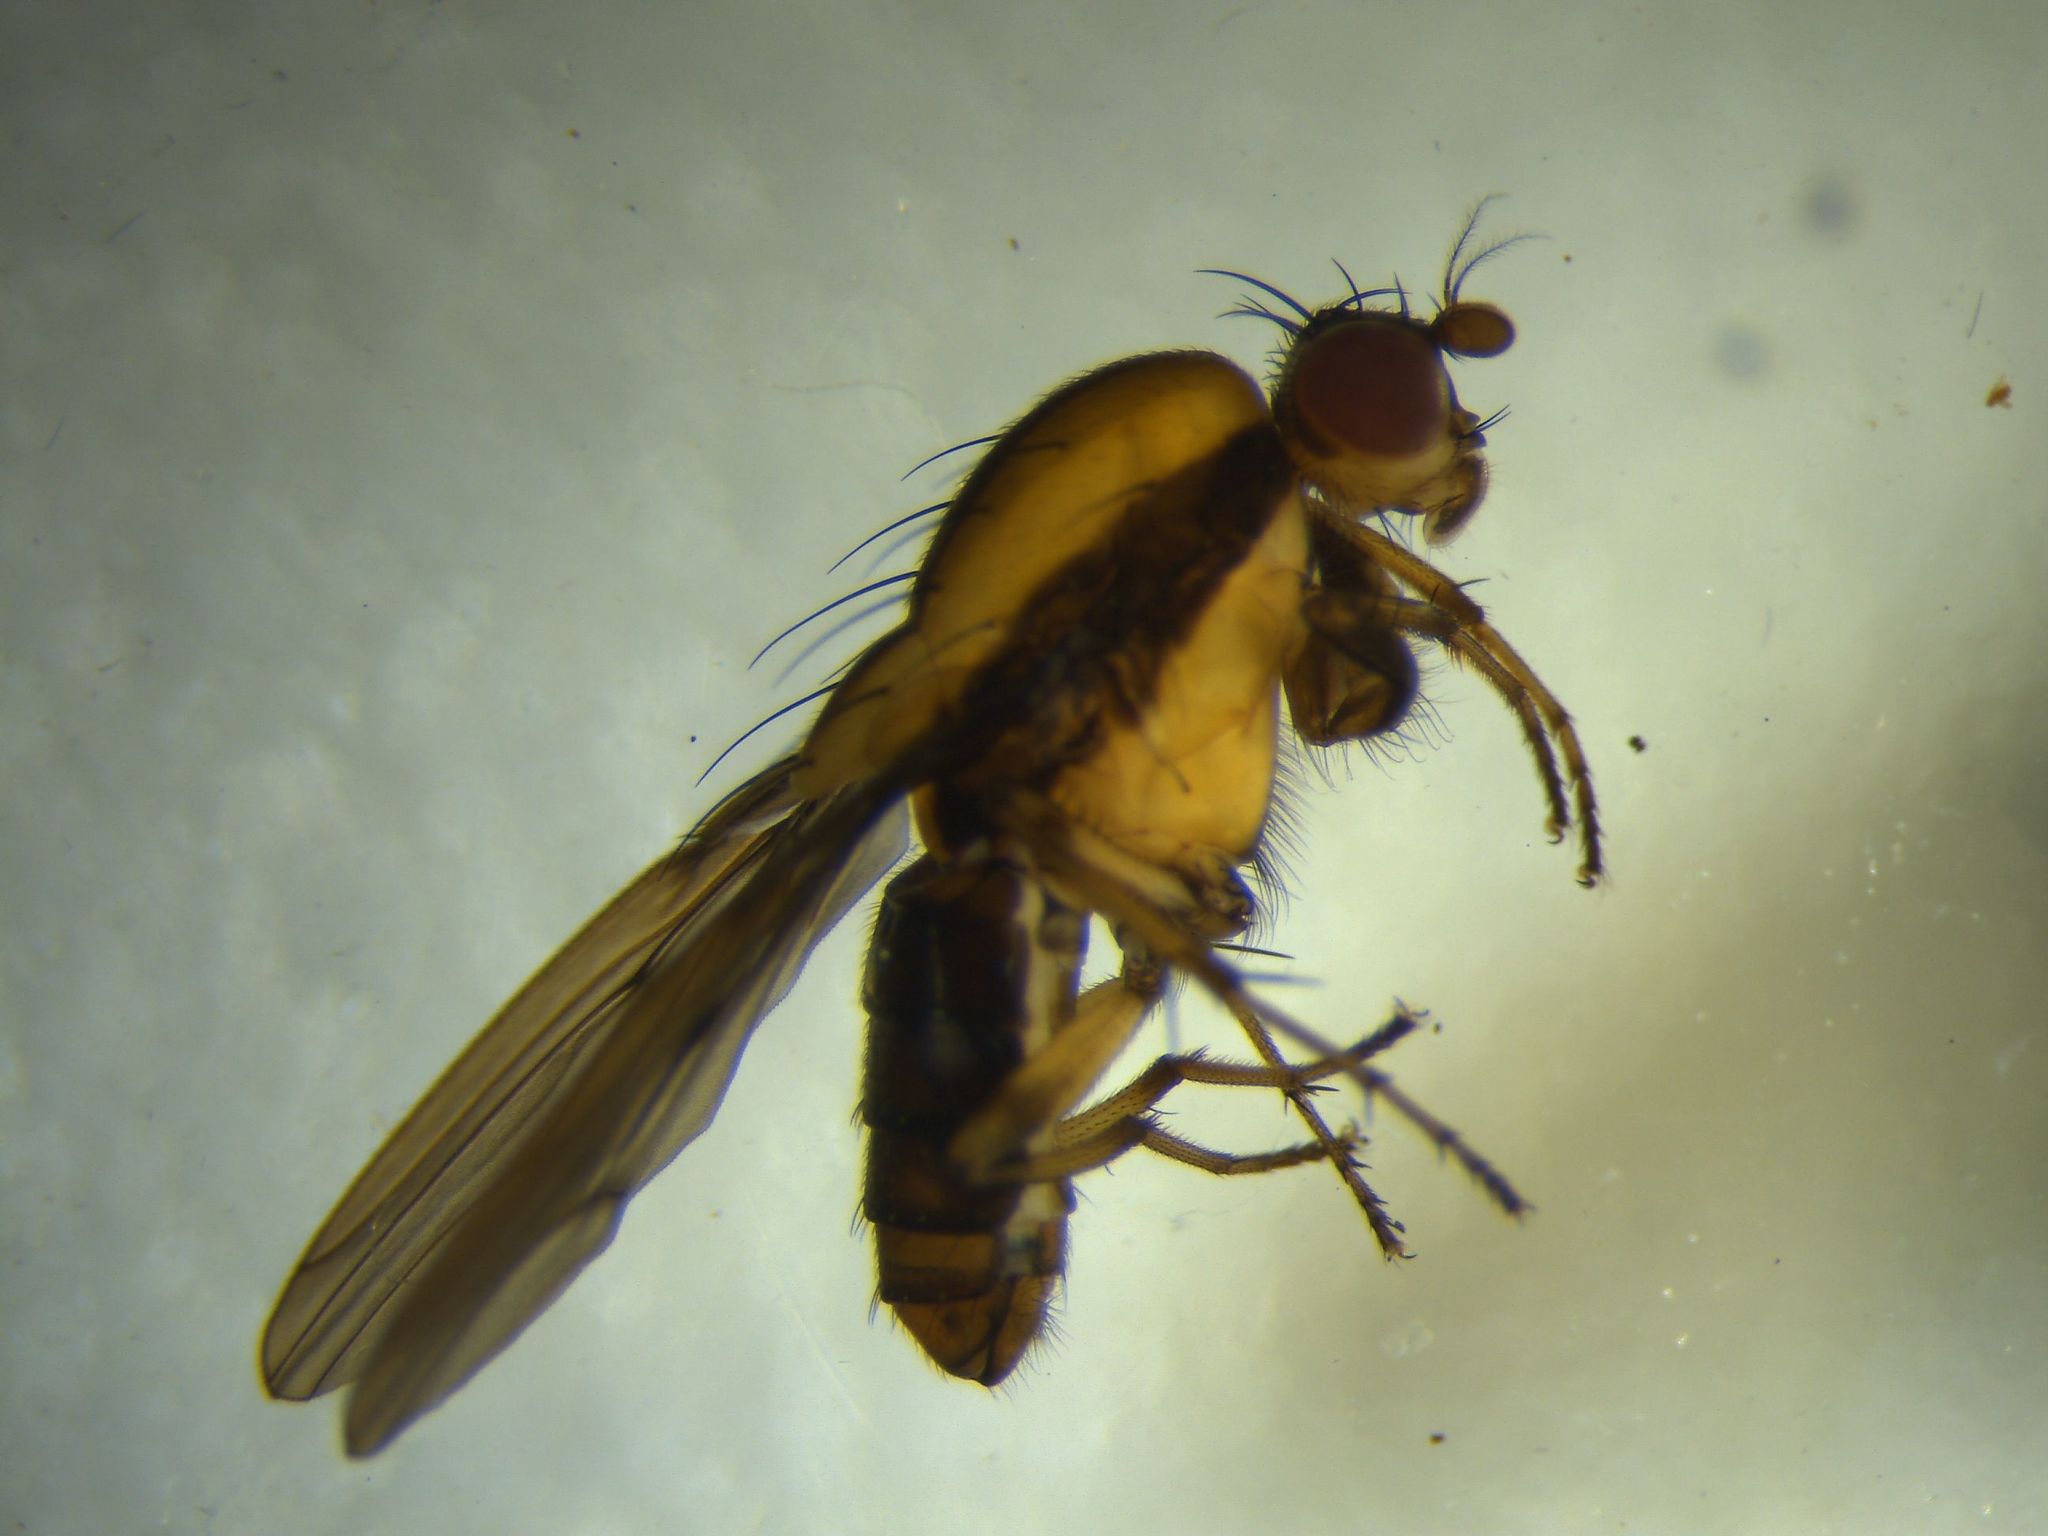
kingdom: Animalia
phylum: Arthropoda
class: Insecta
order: Diptera
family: Heleomyzidae
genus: Allophylopsis
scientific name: Allophylopsis scutellata
